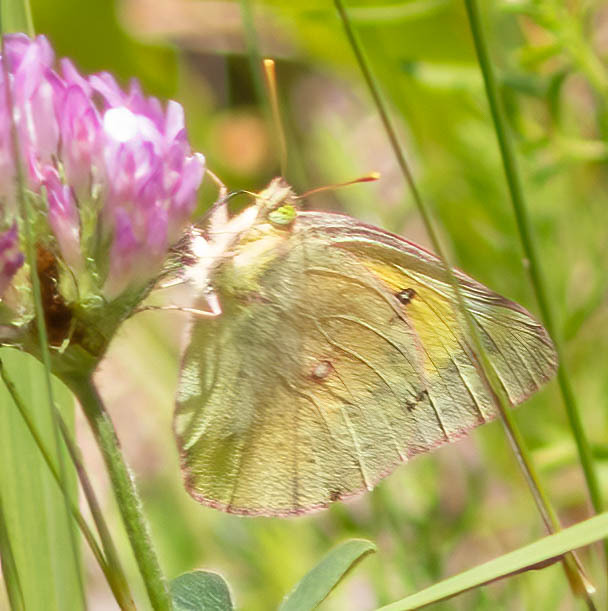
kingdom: Animalia
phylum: Arthropoda
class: Insecta
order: Lepidoptera
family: Pieridae
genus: Colias
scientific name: Colias eurytheme
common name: Alfalfa butterfly
